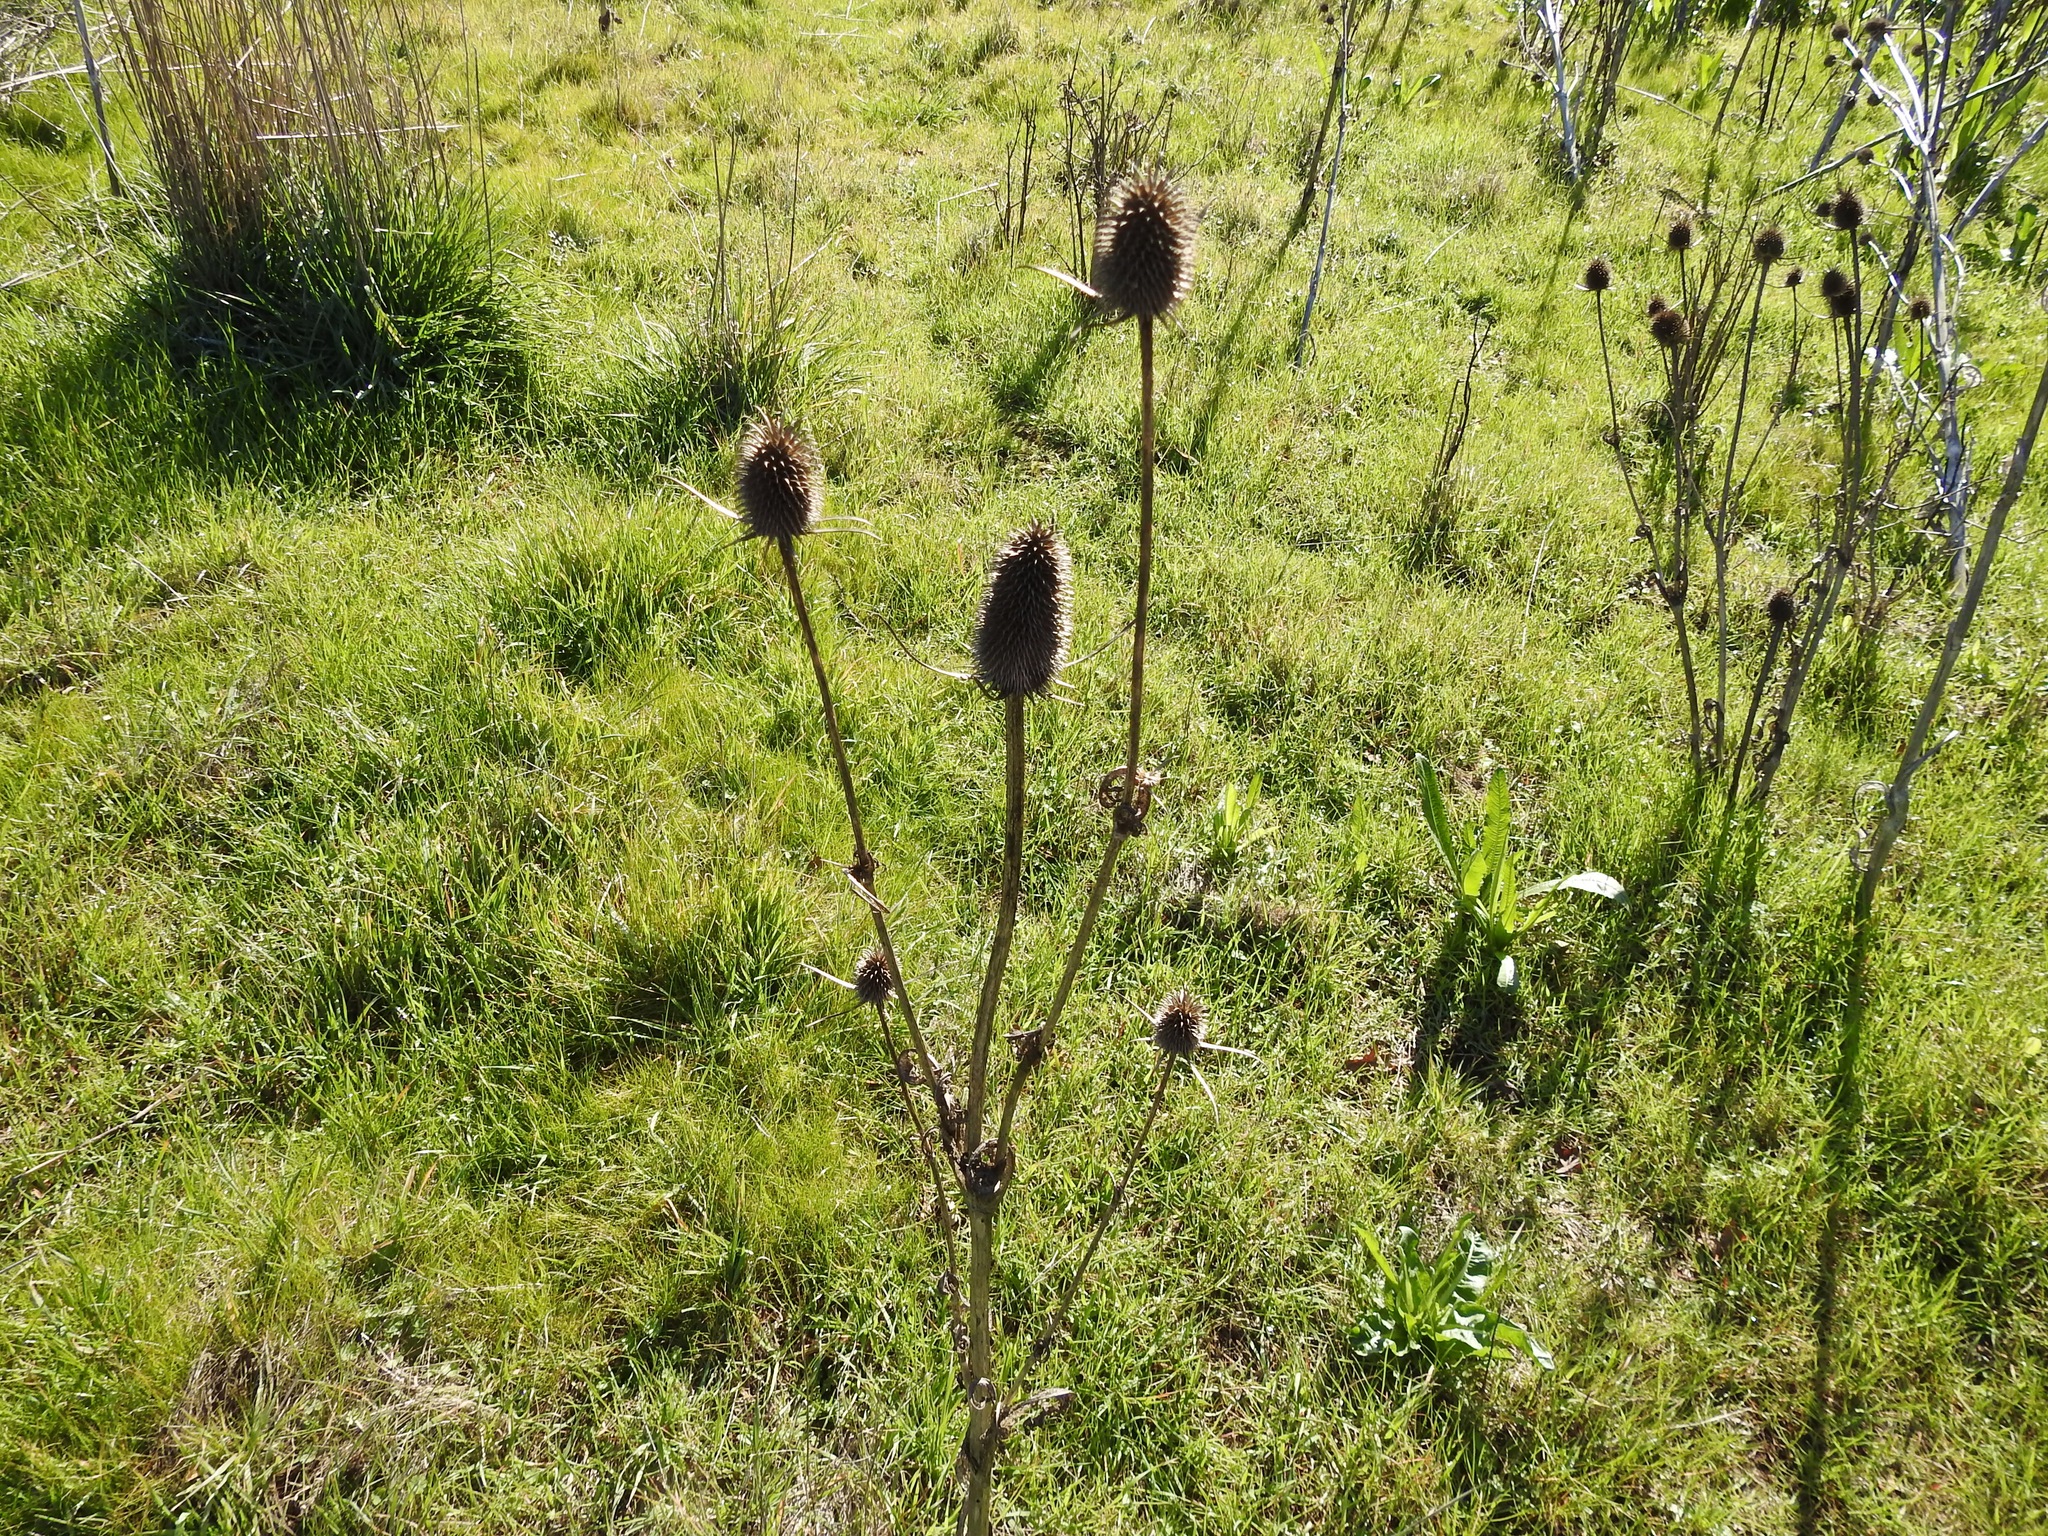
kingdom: Plantae
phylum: Tracheophyta
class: Magnoliopsida
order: Dipsacales
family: Caprifoliaceae
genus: Dipsacus
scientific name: Dipsacus sativus
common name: Fuller's teasel
